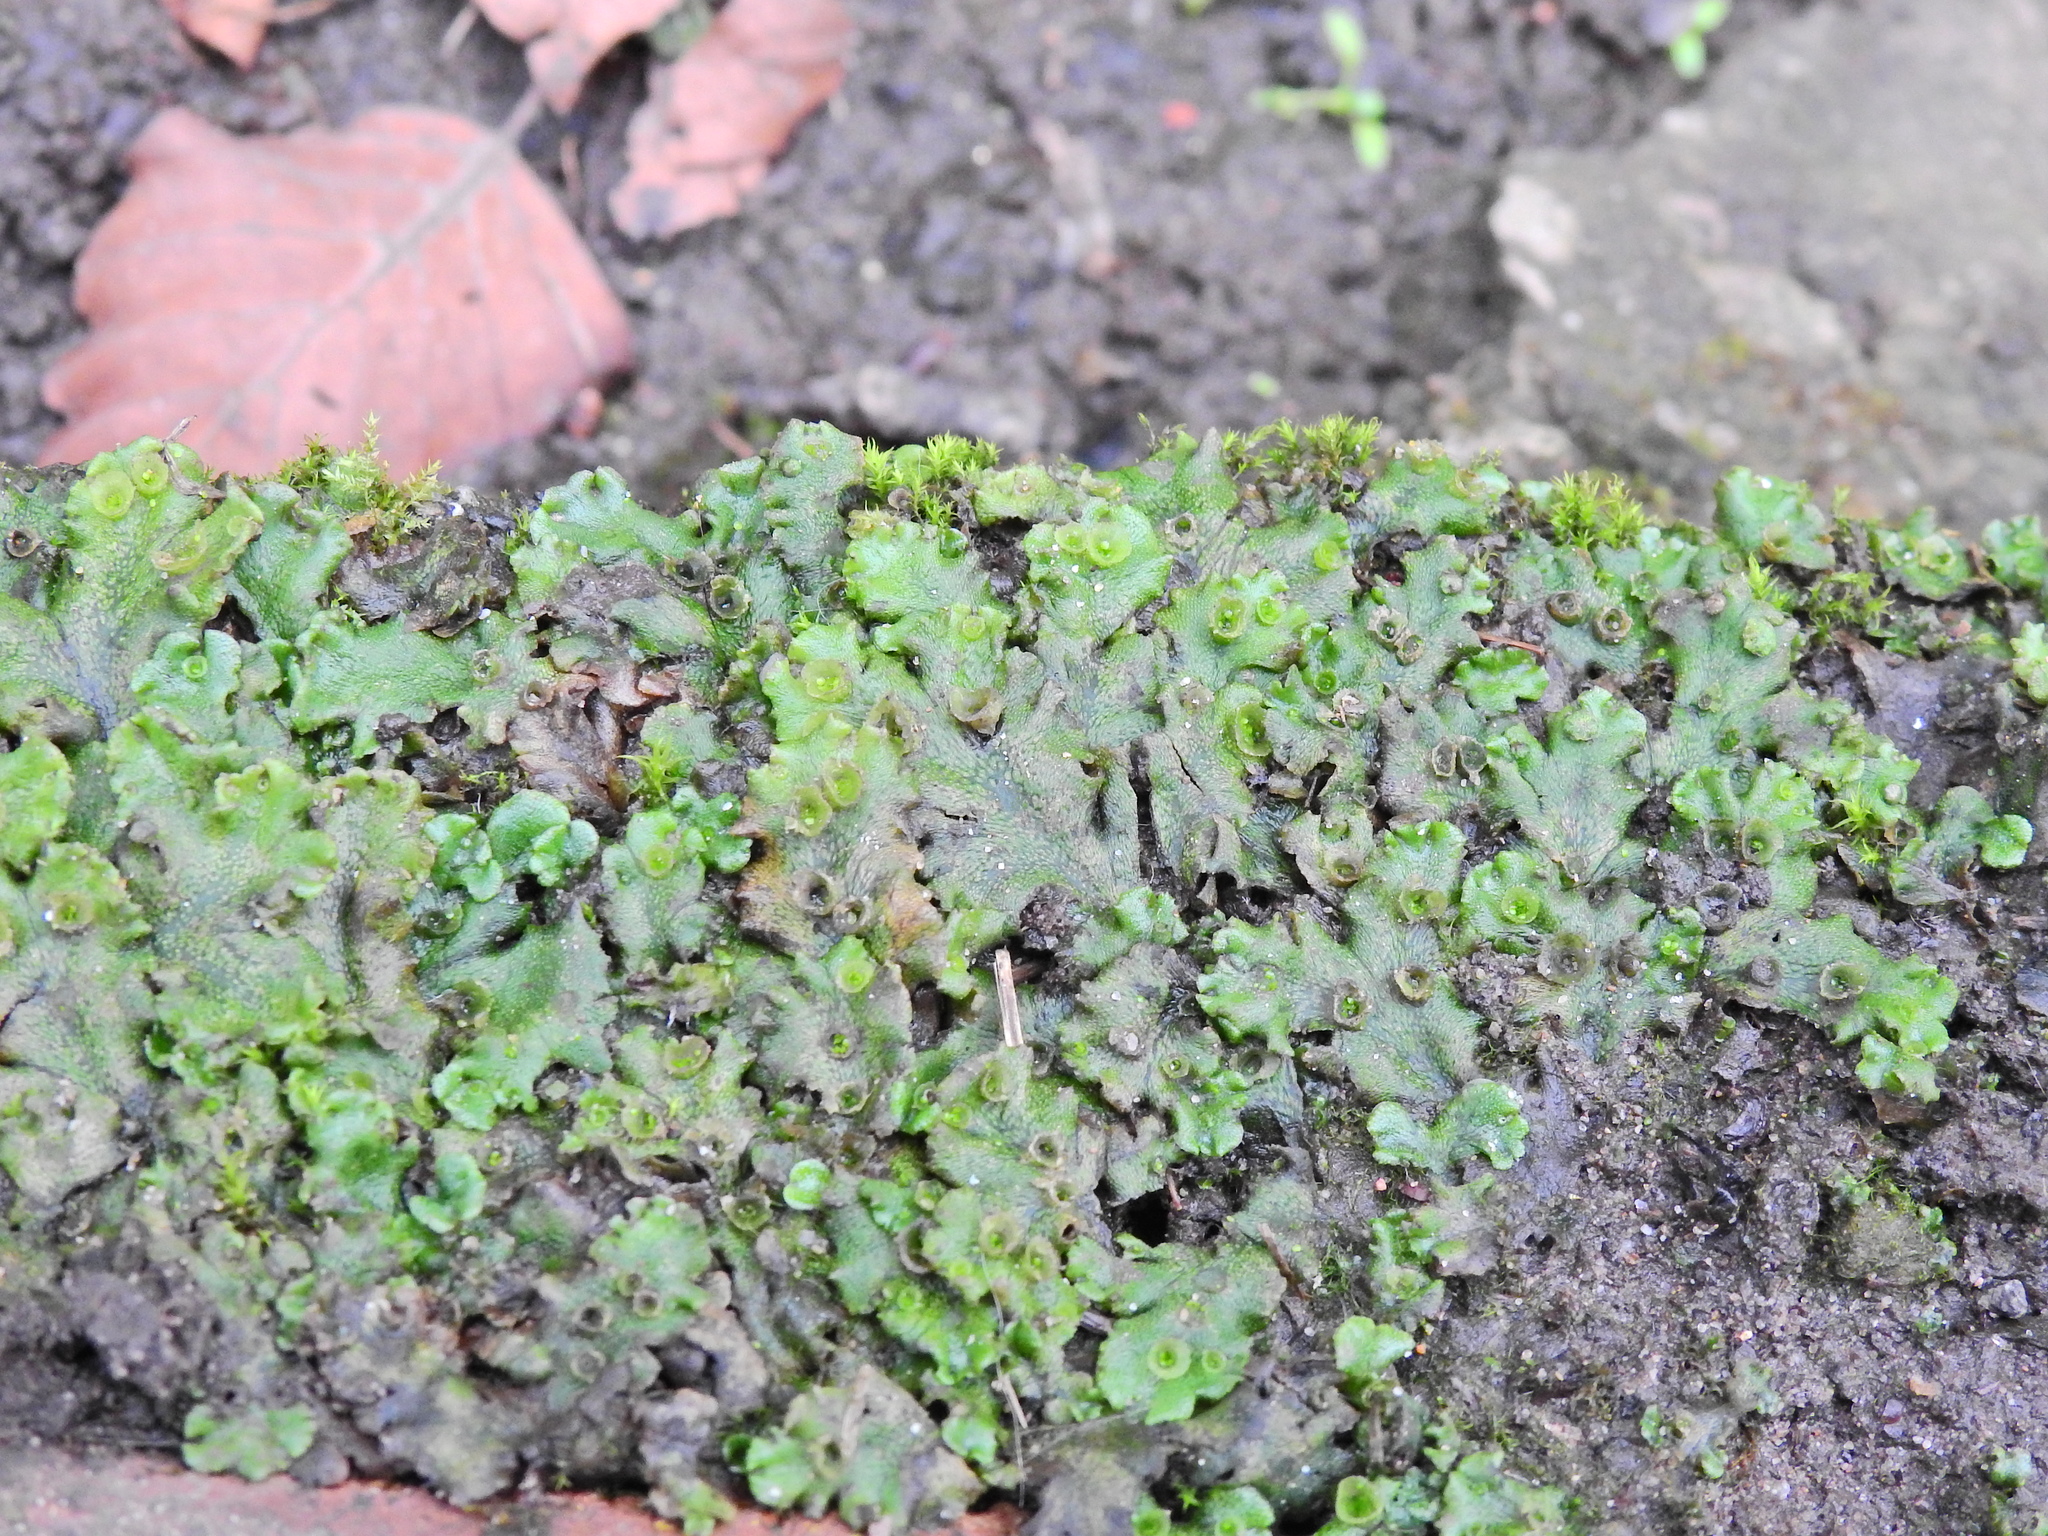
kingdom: Plantae
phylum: Marchantiophyta
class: Marchantiopsida
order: Marchantiales
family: Marchantiaceae
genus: Marchantia
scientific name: Marchantia polymorpha
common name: Common liverwort
